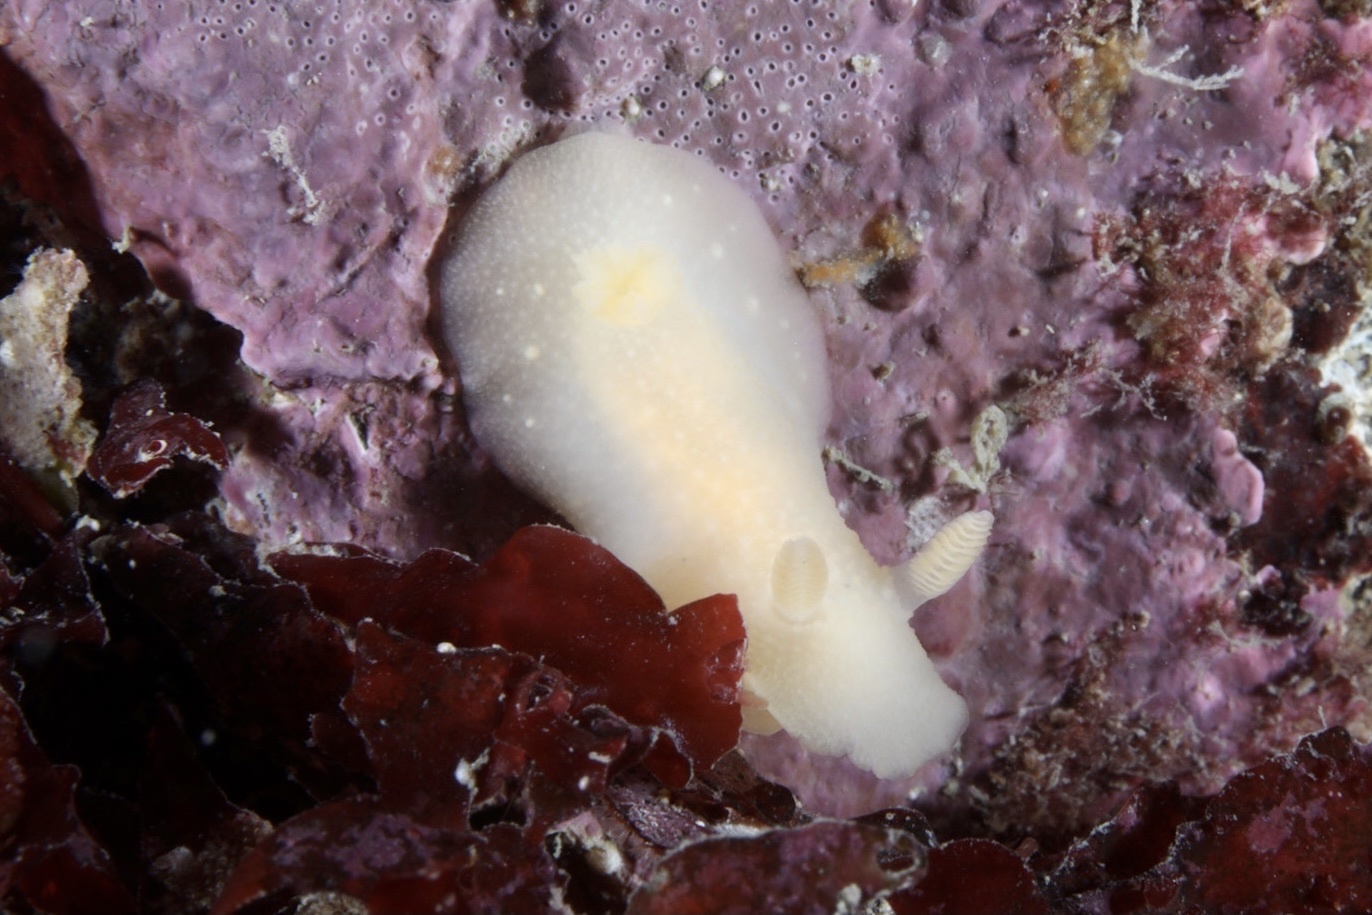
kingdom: Animalia
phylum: Mollusca
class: Gastropoda
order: Nudibranchia
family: Cadlinidae
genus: Cadlina
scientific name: Cadlina laevis
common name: White atlantic cadlina
